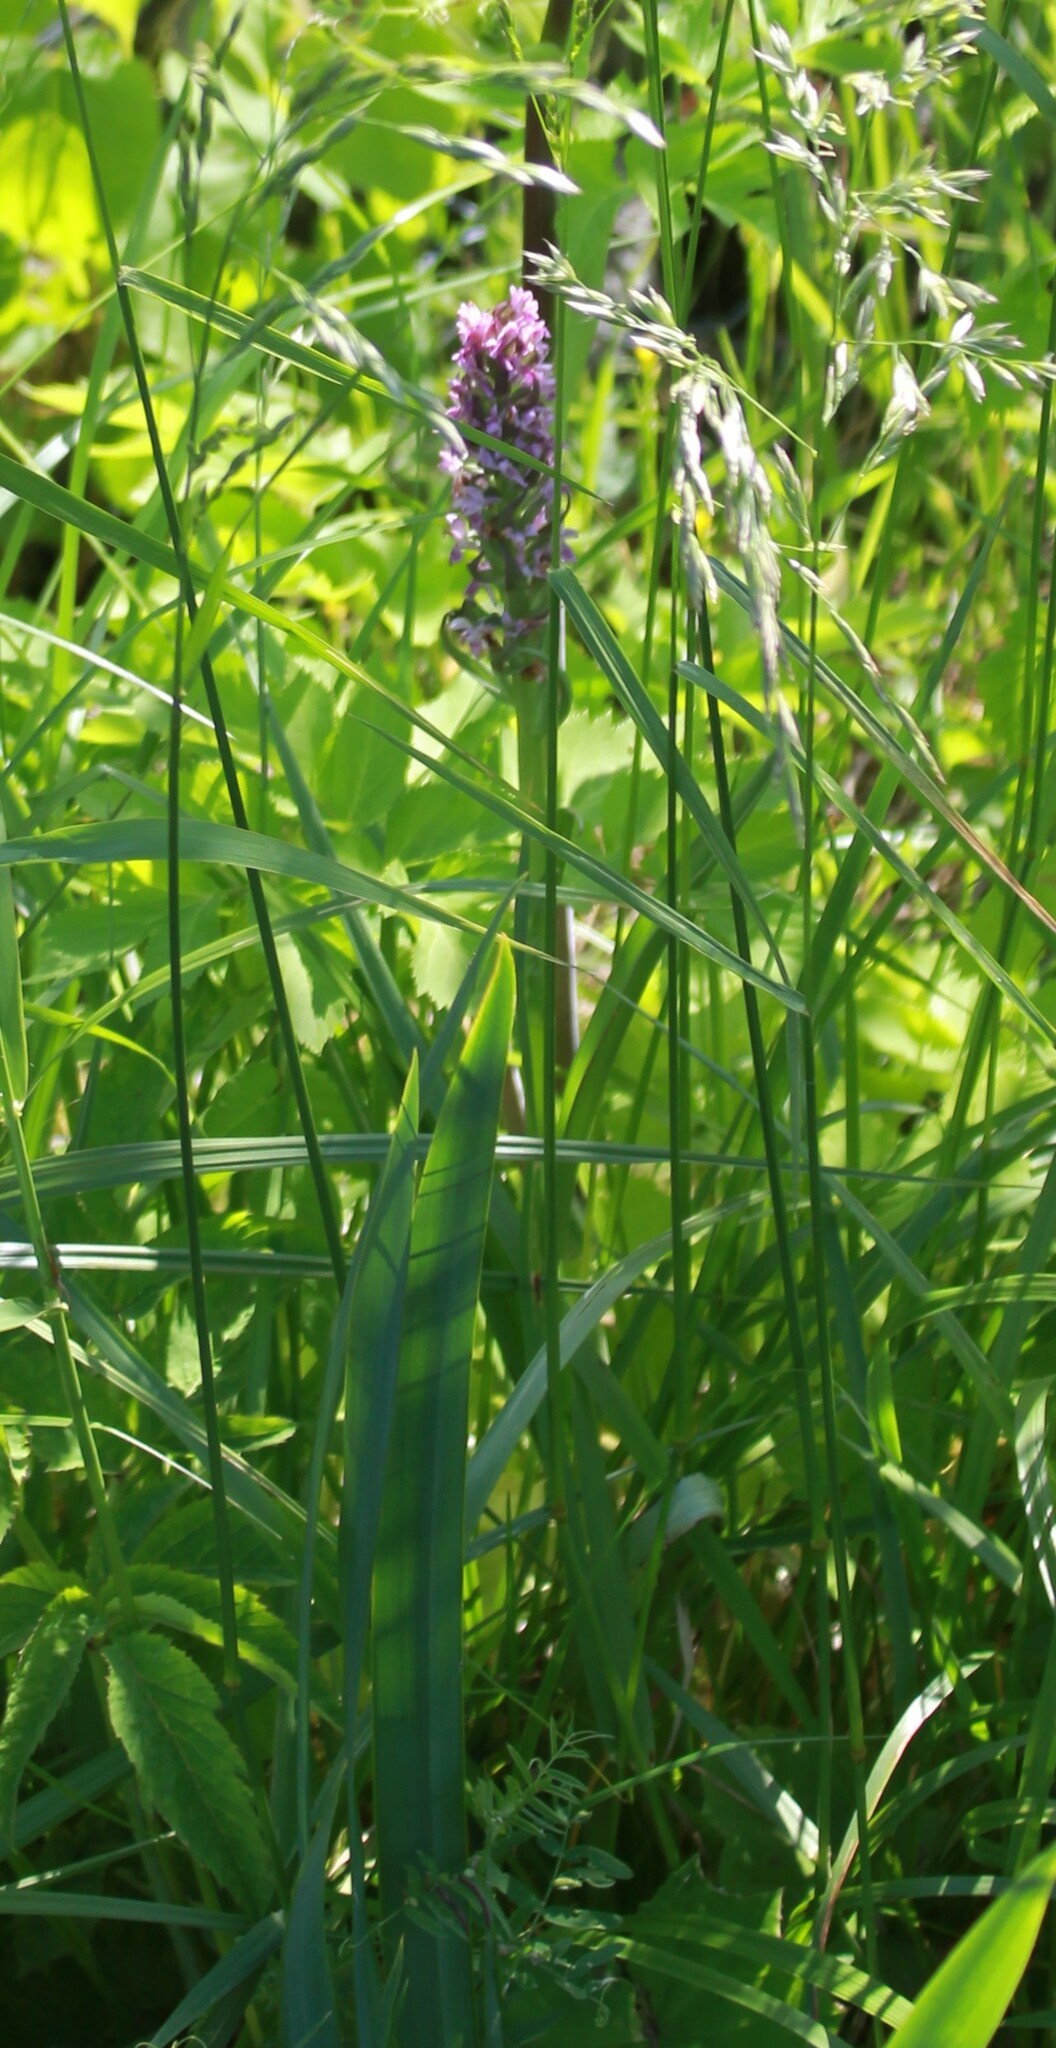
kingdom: Plantae
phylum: Tracheophyta
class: Liliopsida
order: Asparagales
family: Orchidaceae
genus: Dactylorhiza
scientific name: Dactylorhiza incarnata
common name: Early marsh-orchid
